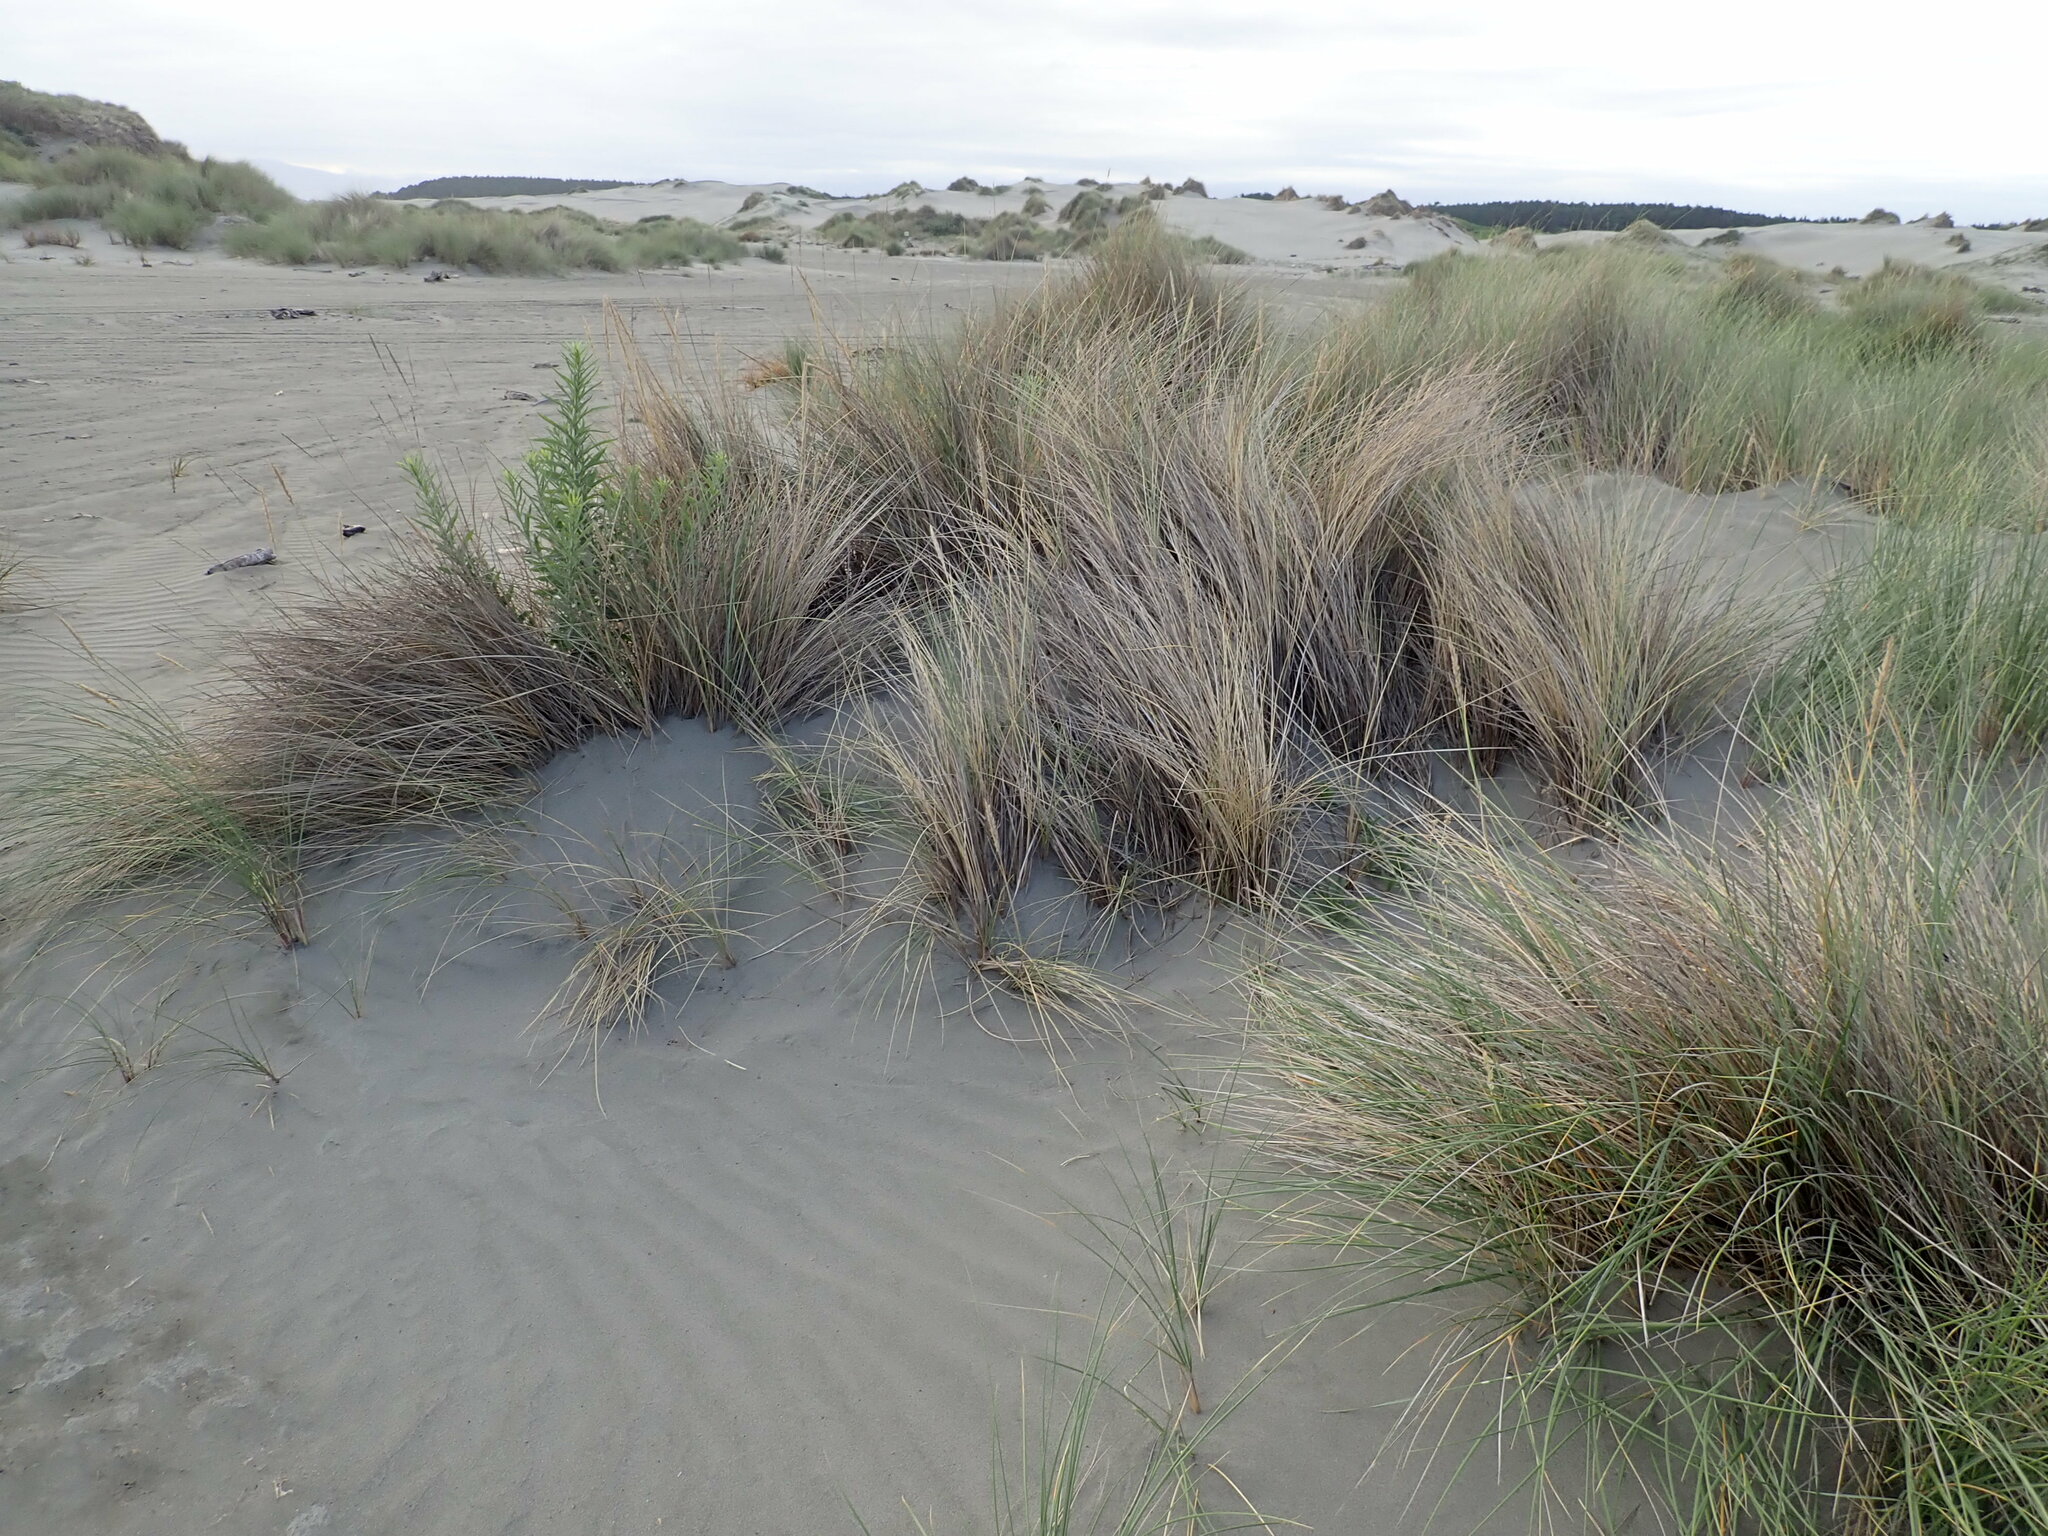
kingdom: Plantae
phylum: Tracheophyta
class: Magnoliopsida
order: Asterales
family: Asteraceae
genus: Erigeron
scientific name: Erigeron sumatrensis
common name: Daisy
